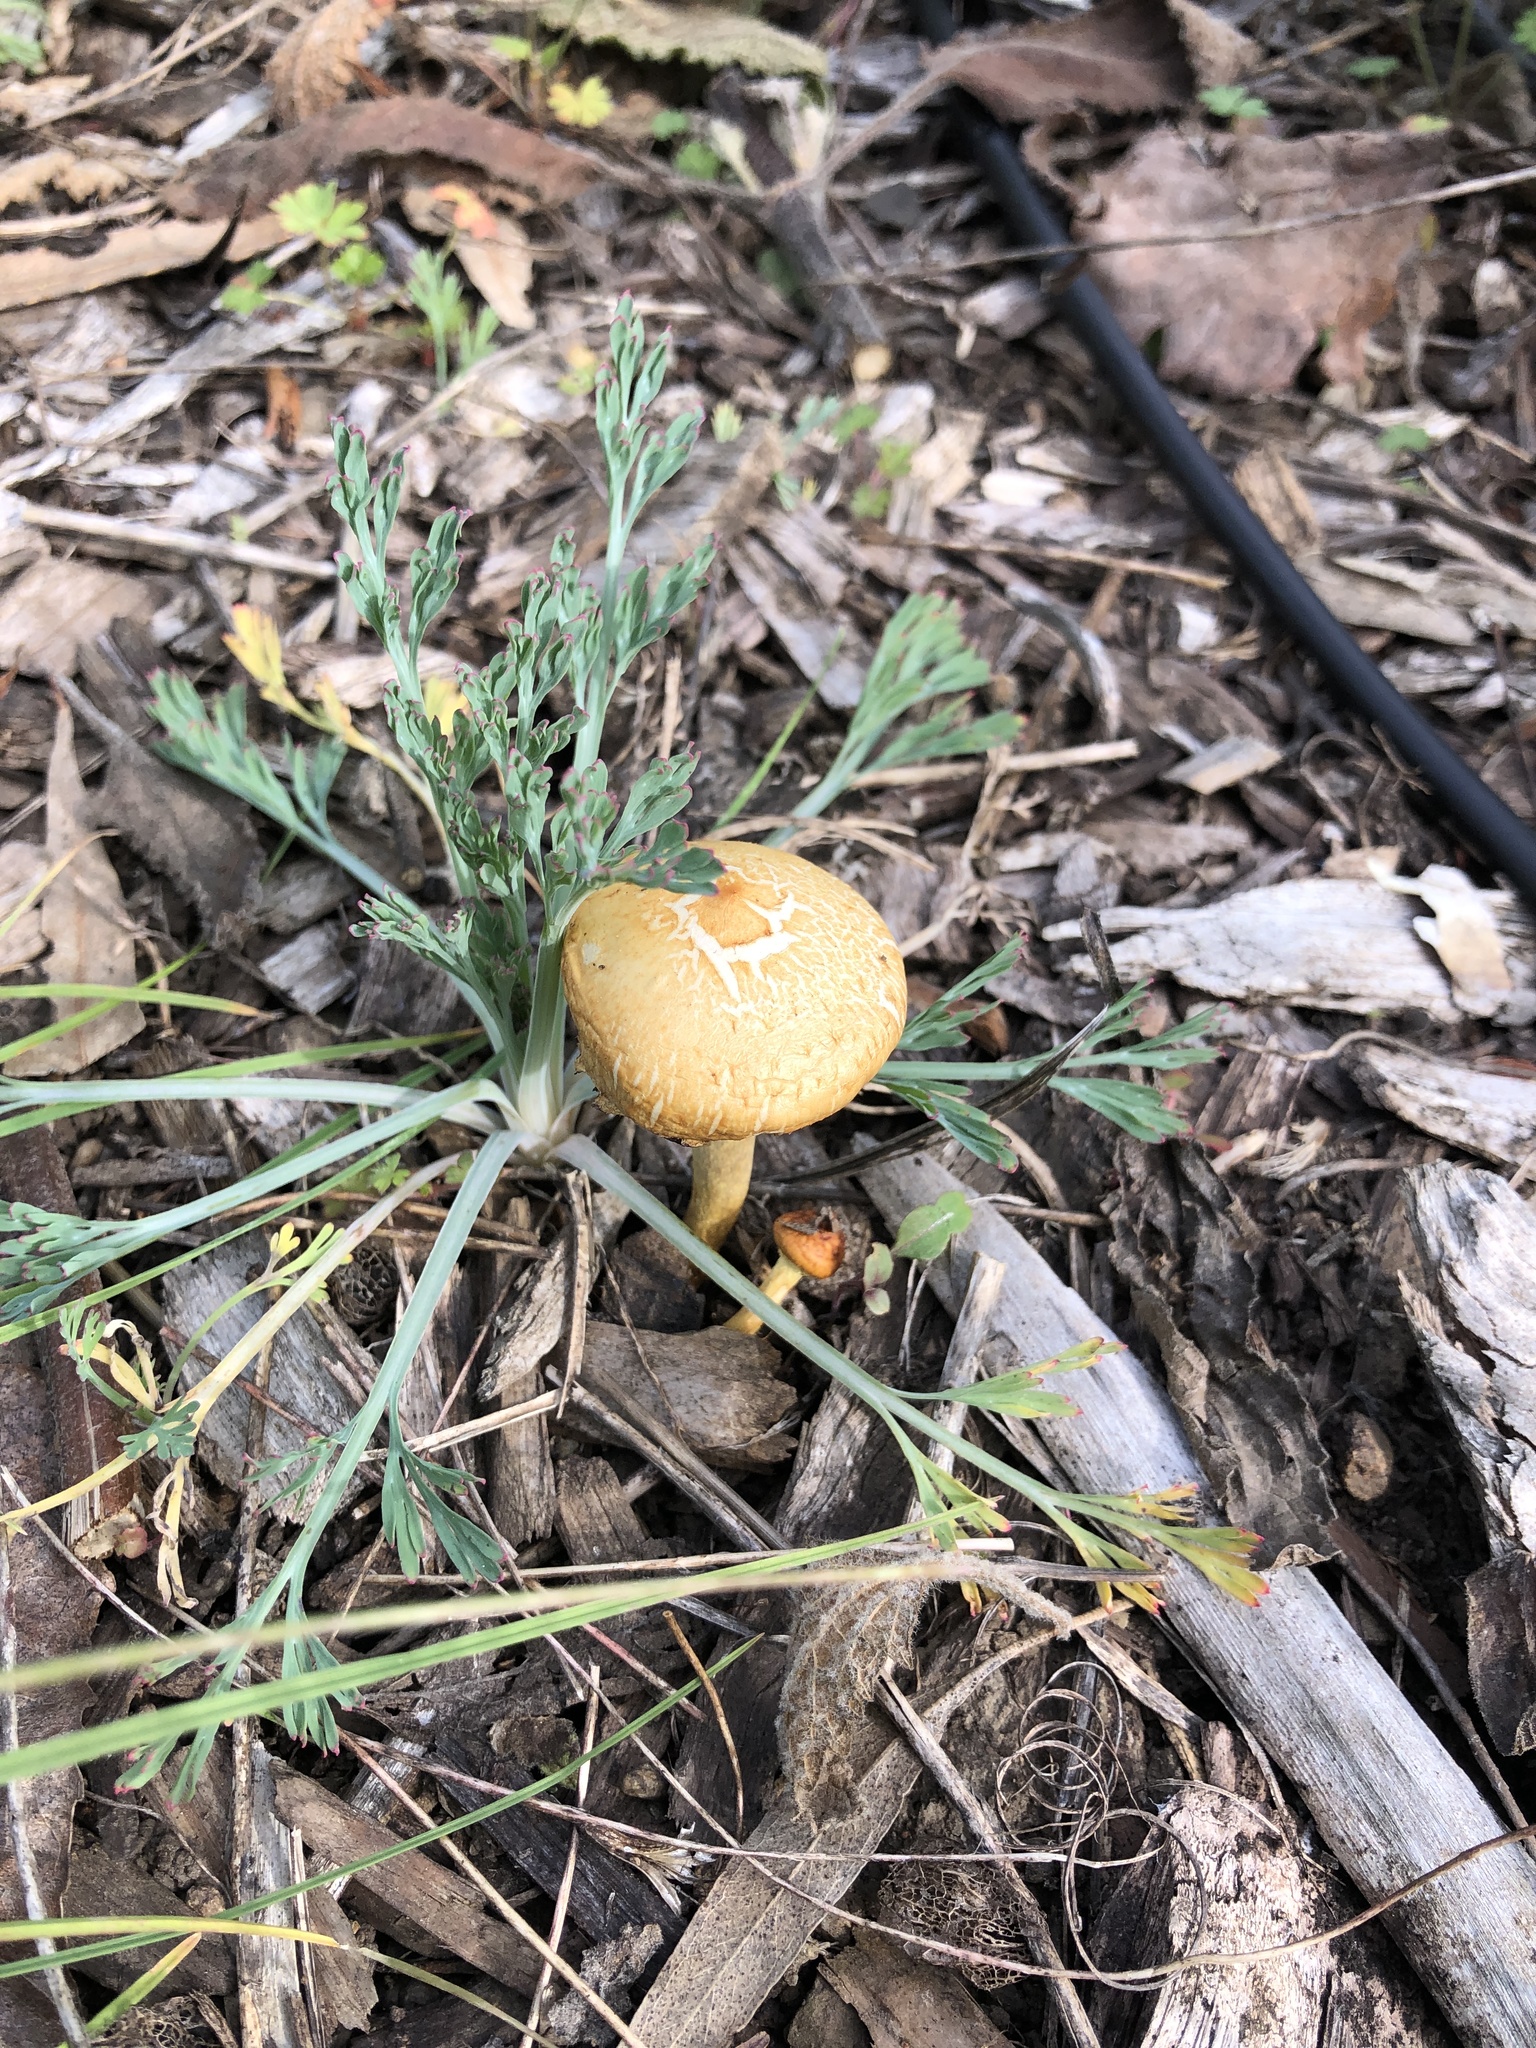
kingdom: Fungi
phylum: Basidiomycota
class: Agaricomycetes
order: Agaricales
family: Strophariaceae
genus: Leratiomyces
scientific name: Leratiomyces percevalii
